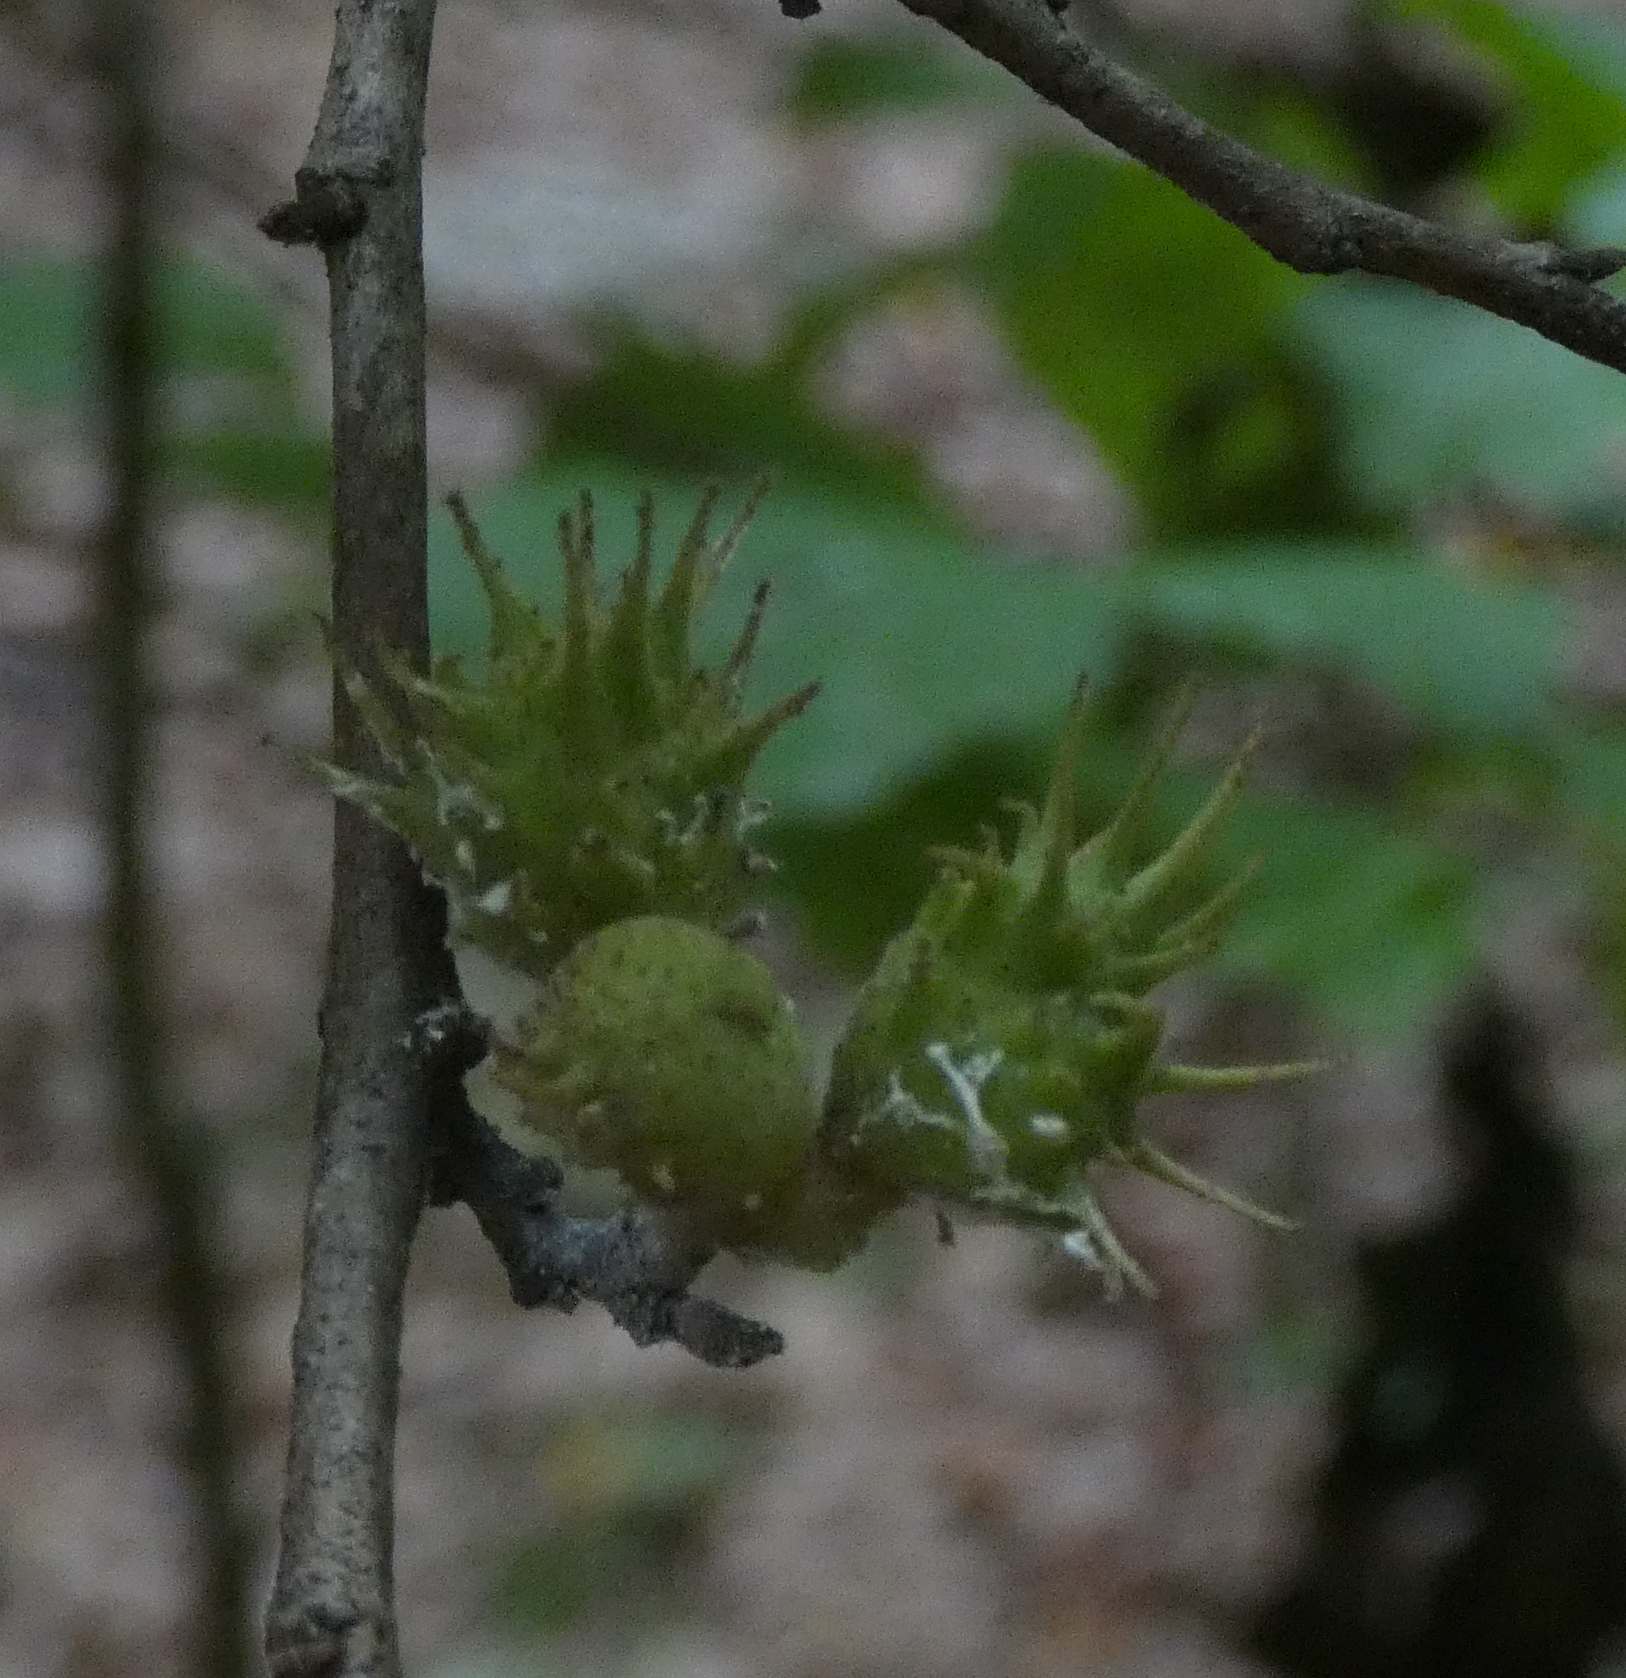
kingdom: Animalia
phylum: Arthropoda
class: Insecta
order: Hemiptera
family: Aphididae
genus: Hamamelistes
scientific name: Hamamelistes spinosus
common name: Witch hazel gall aphid
